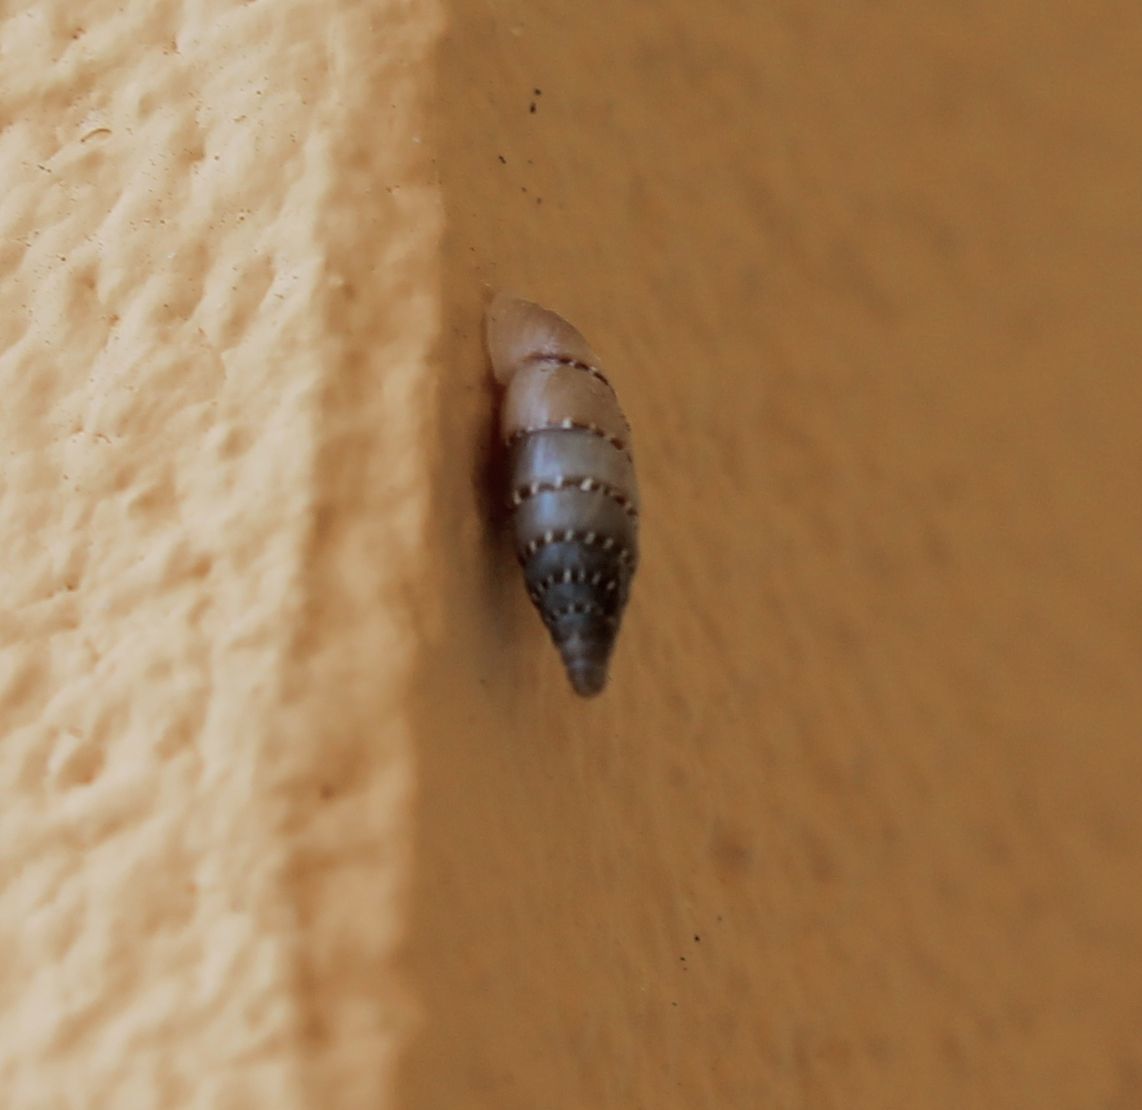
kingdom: Animalia
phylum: Mollusca
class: Gastropoda
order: Stylommatophora
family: Clausiliidae
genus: Papillifera
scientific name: Papillifera papillaris
